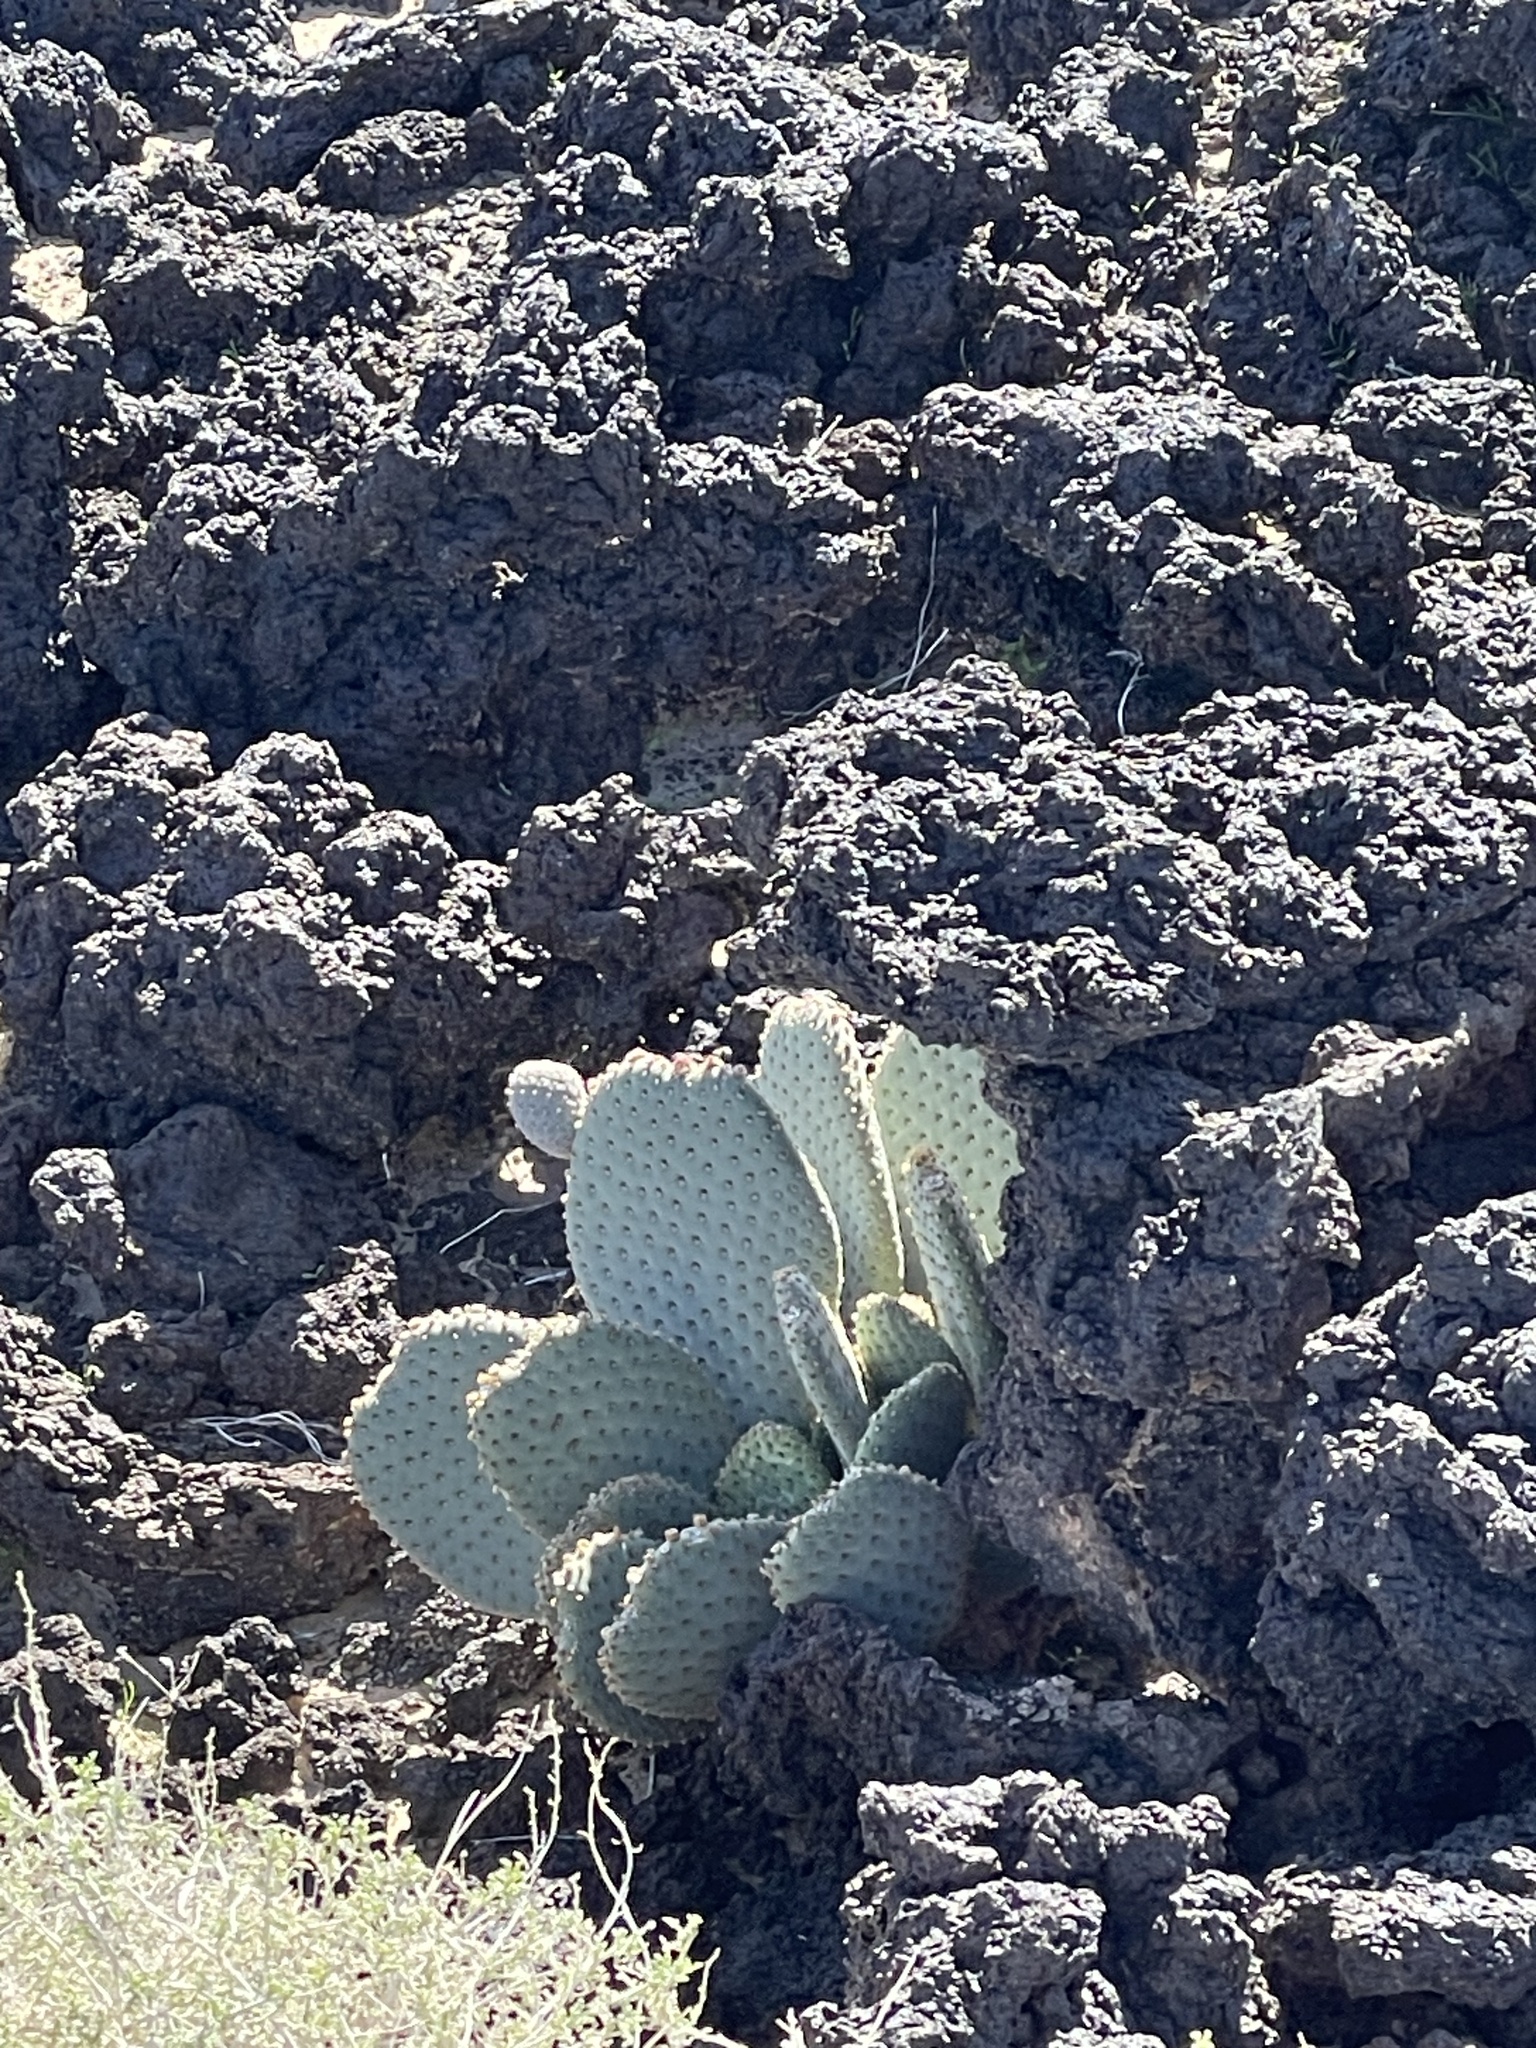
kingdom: Plantae
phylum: Tracheophyta
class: Magnoliopsida
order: Caryophyllales
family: Cactaceae
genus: Opuntia
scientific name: Opuntia basilaris
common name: Beavertail prickly-pear
